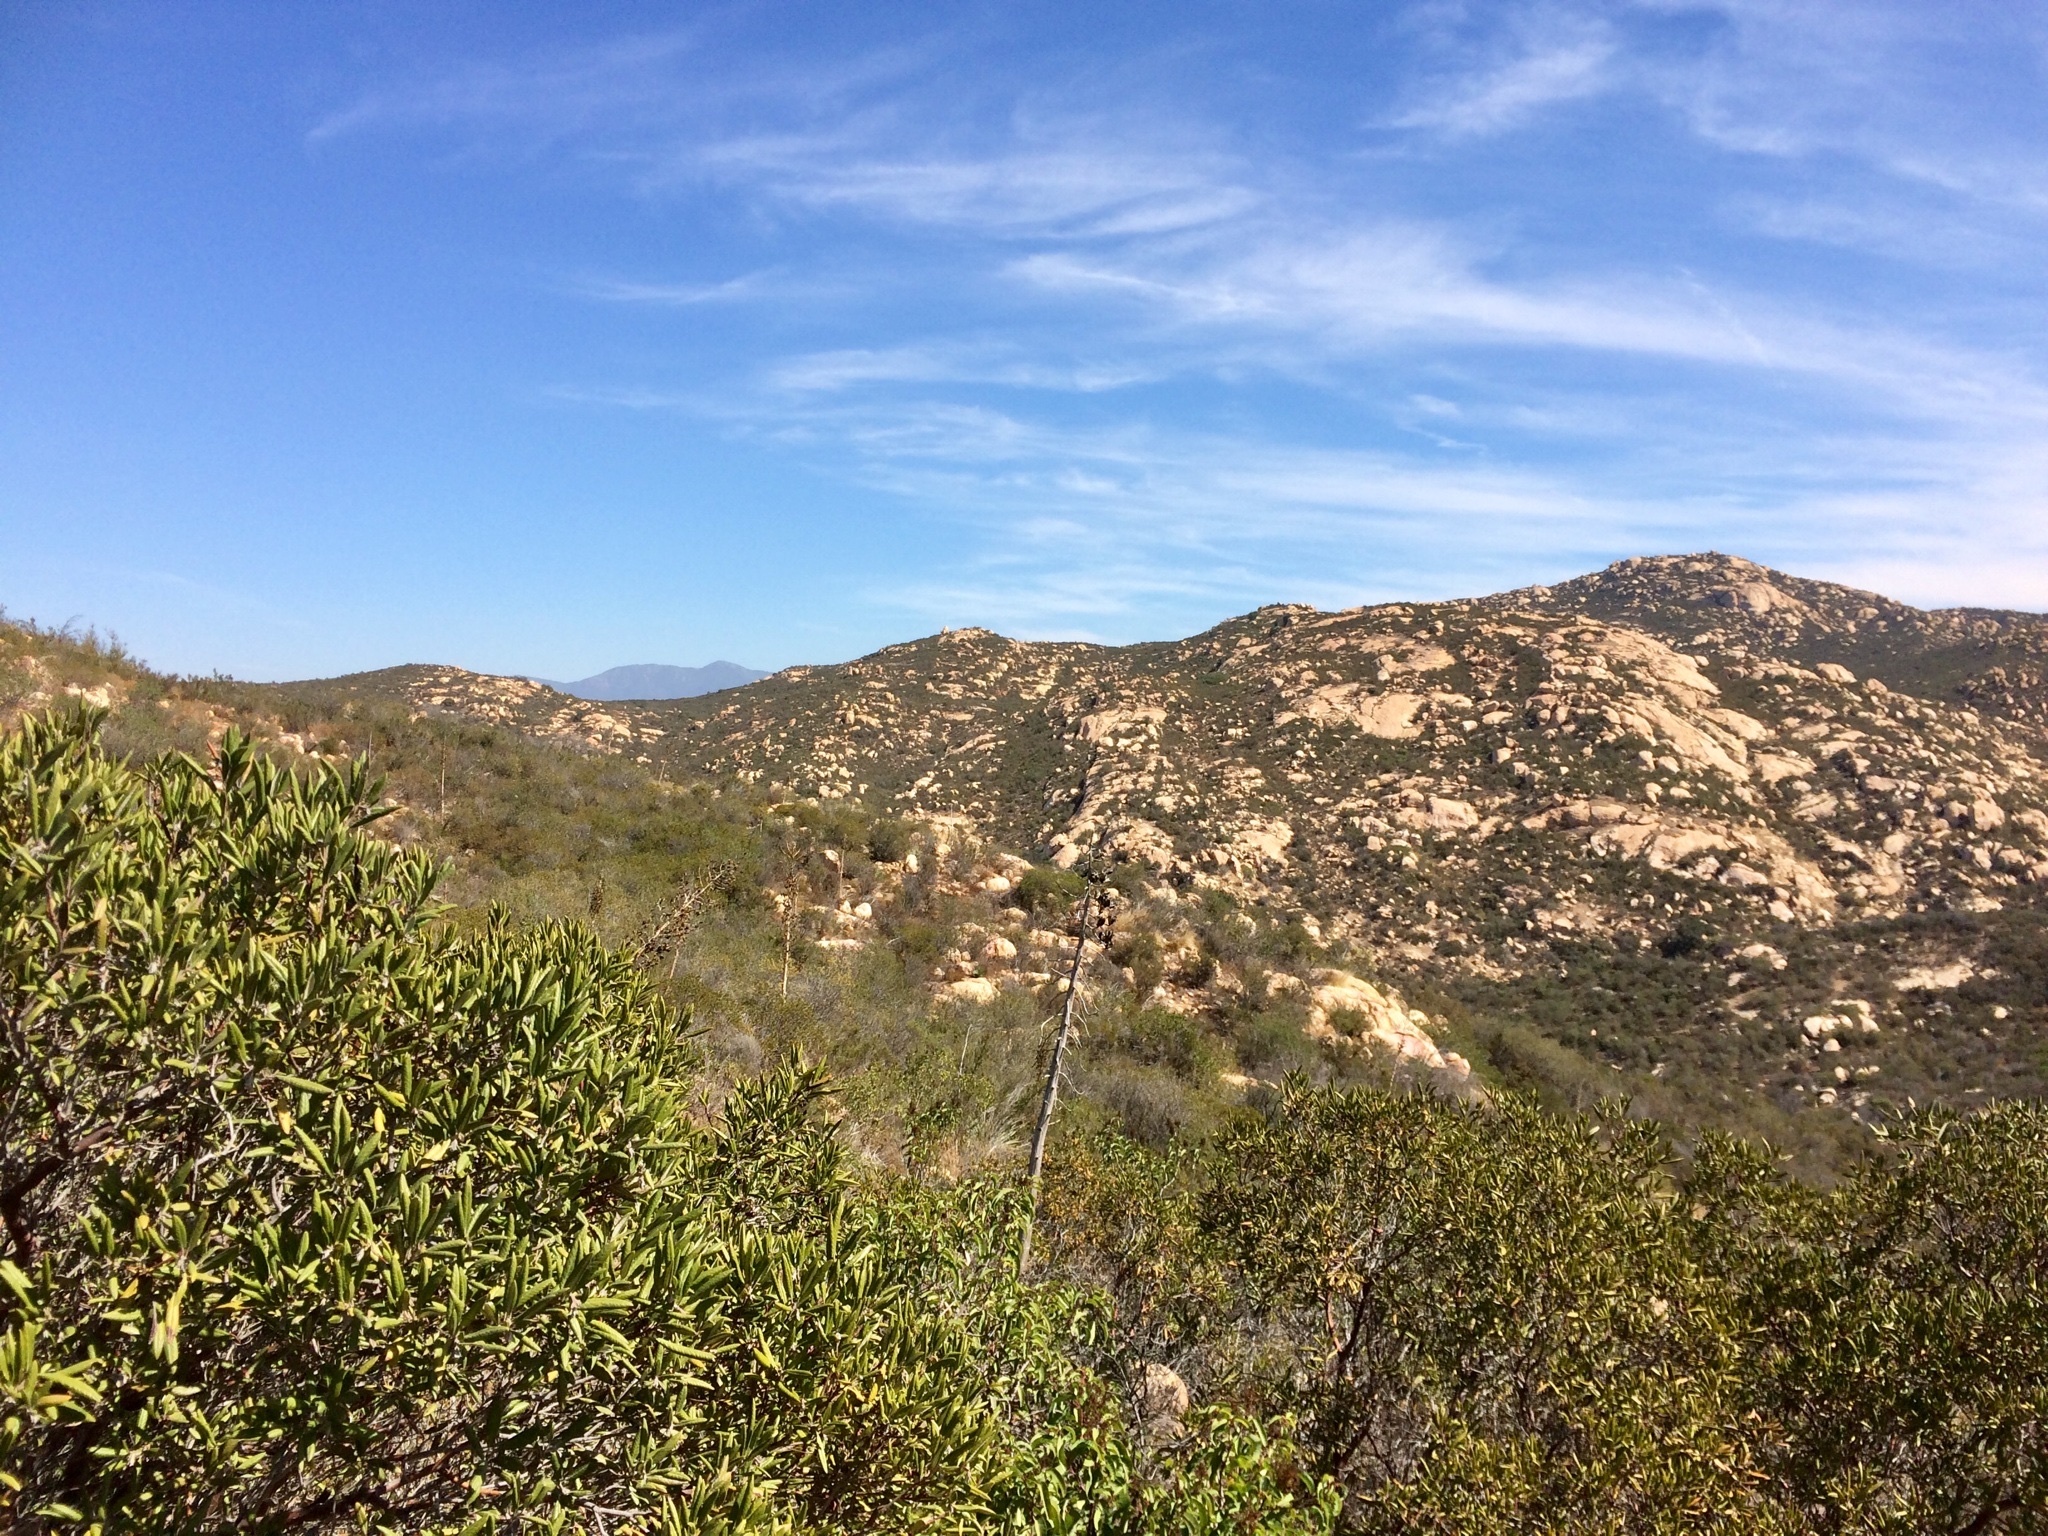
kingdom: Plantae
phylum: Tracheophyta
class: Magnoliopsida
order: Ericales
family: Ericaceae
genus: Arctostaphylos
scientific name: Arctostaphylos bicolor
